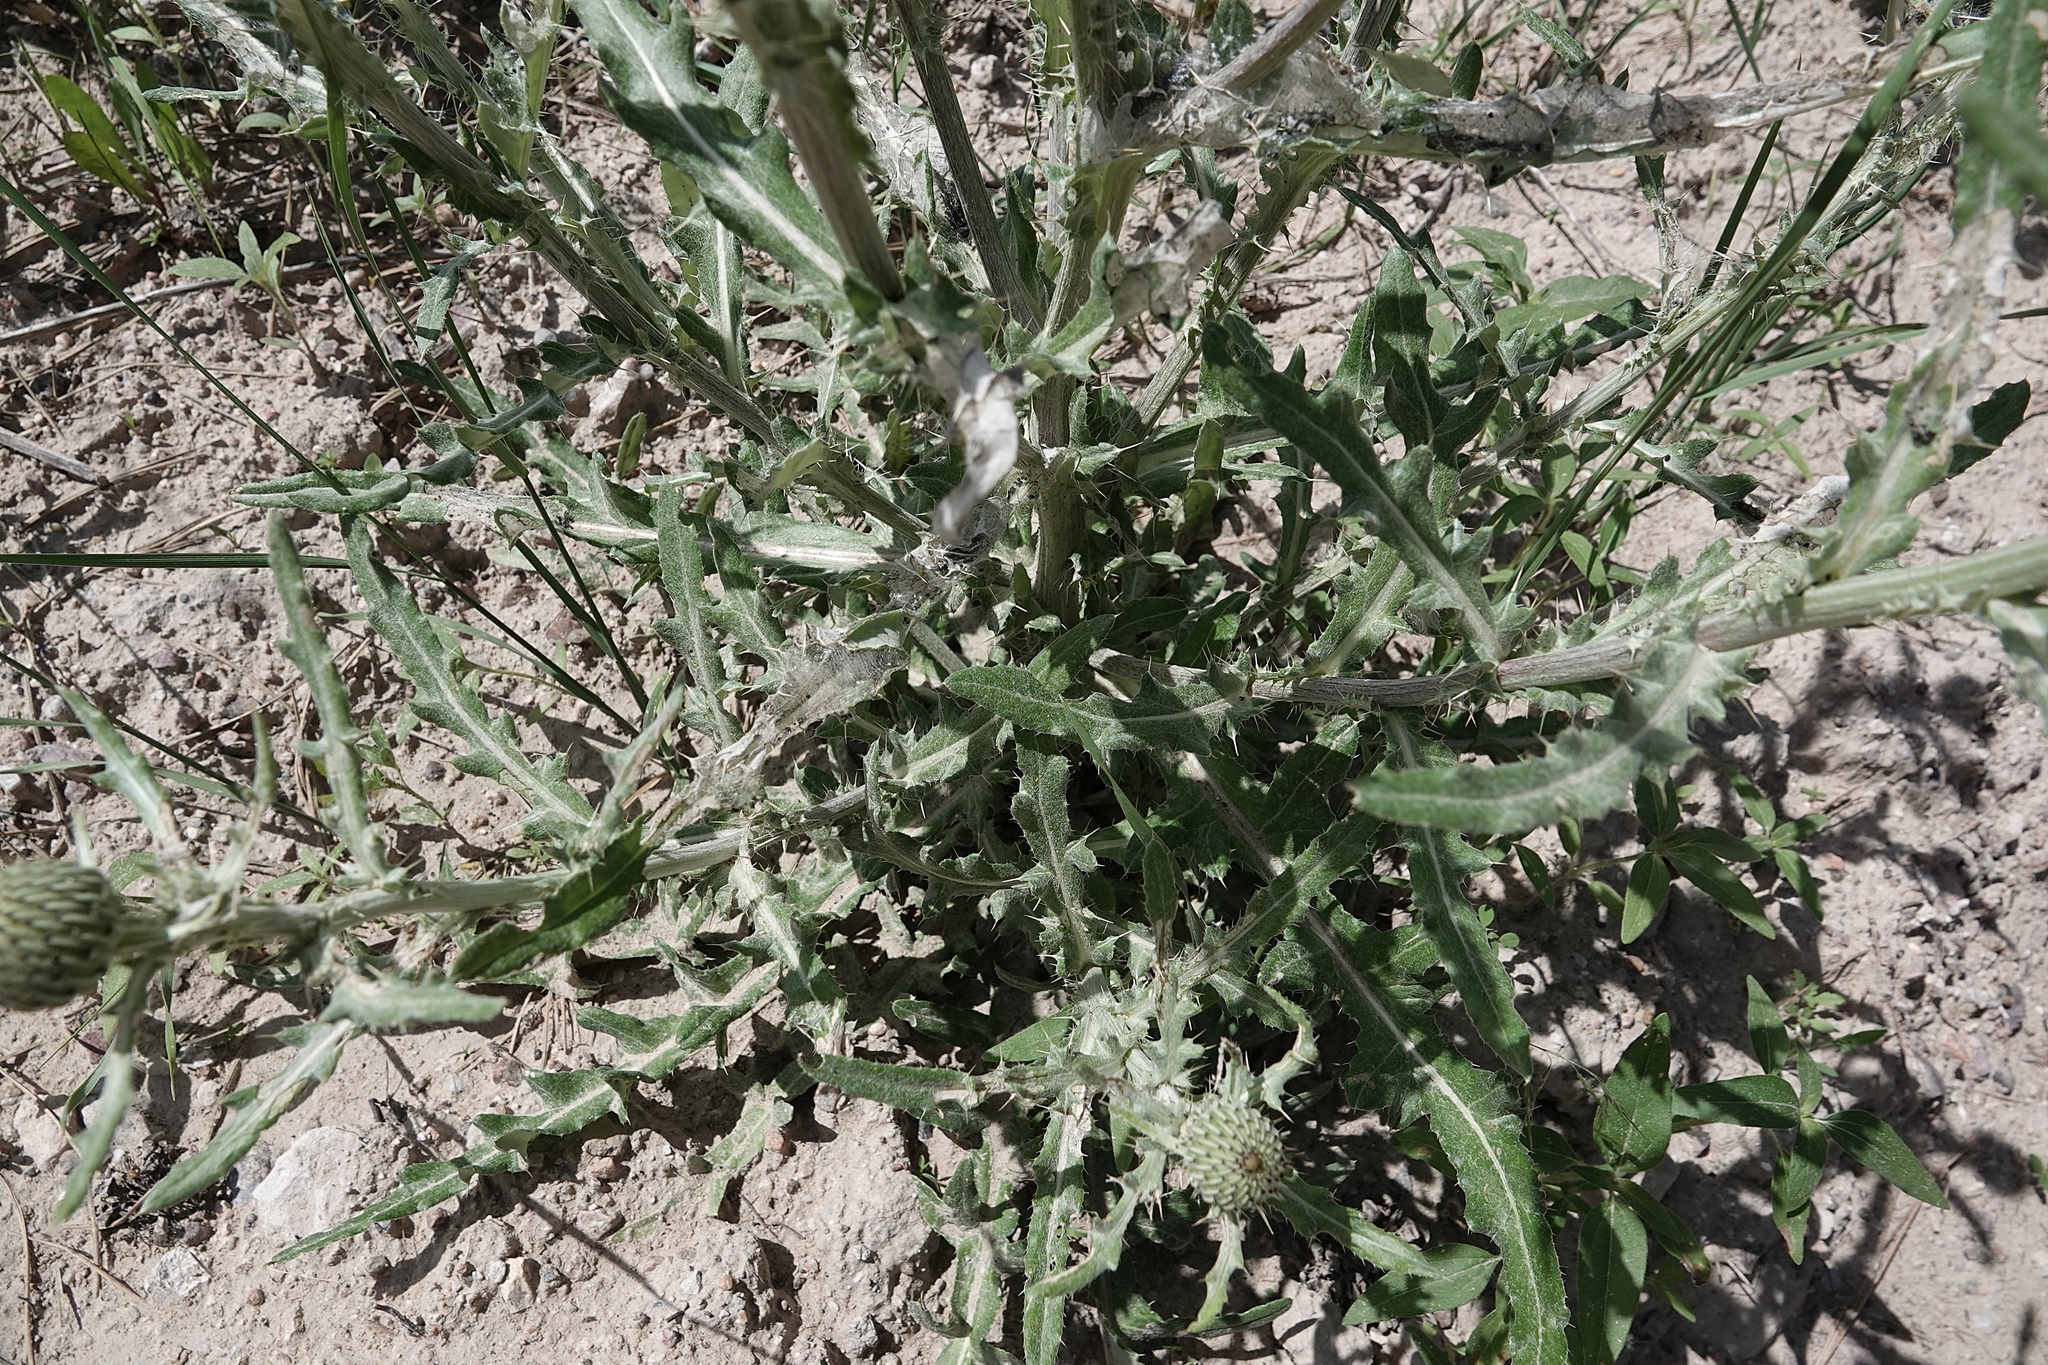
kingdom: Plantae
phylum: Tracheophyta
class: Magnoliopsida
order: Asterales
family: Asteraceae
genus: Cirsium
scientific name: Cirsium canescens
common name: Prairie thistle
